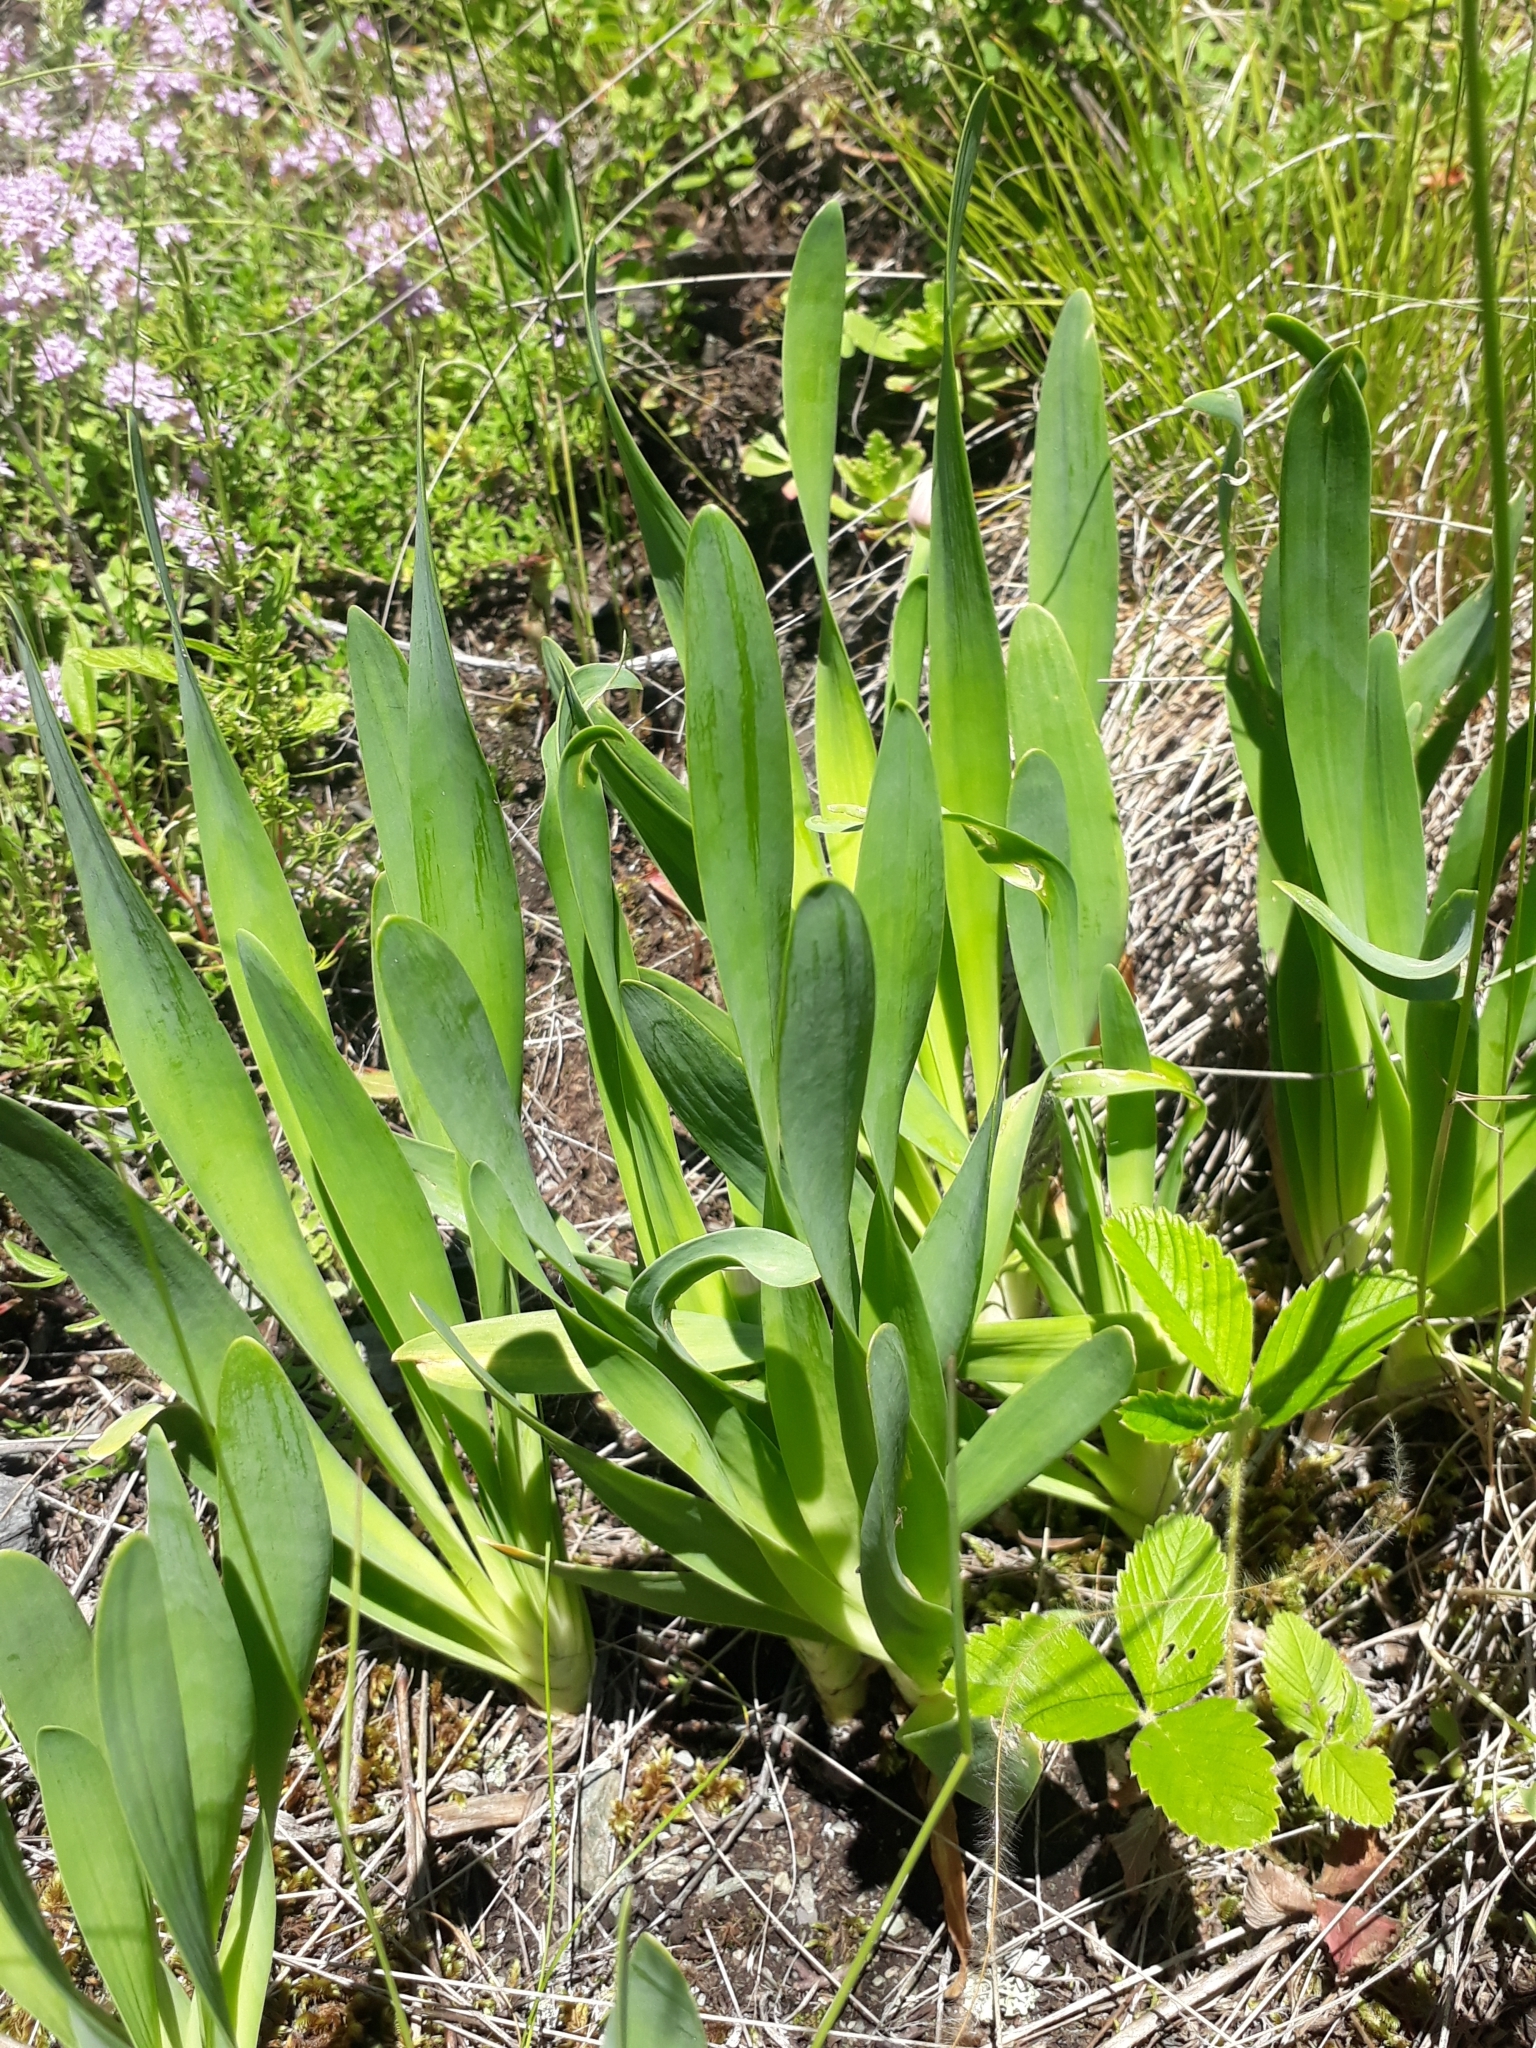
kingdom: Plantae
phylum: Tracheophyta
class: Liliopsida
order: Asparagales
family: Amaryllidaceae
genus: Allium
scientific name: Allium nutans
